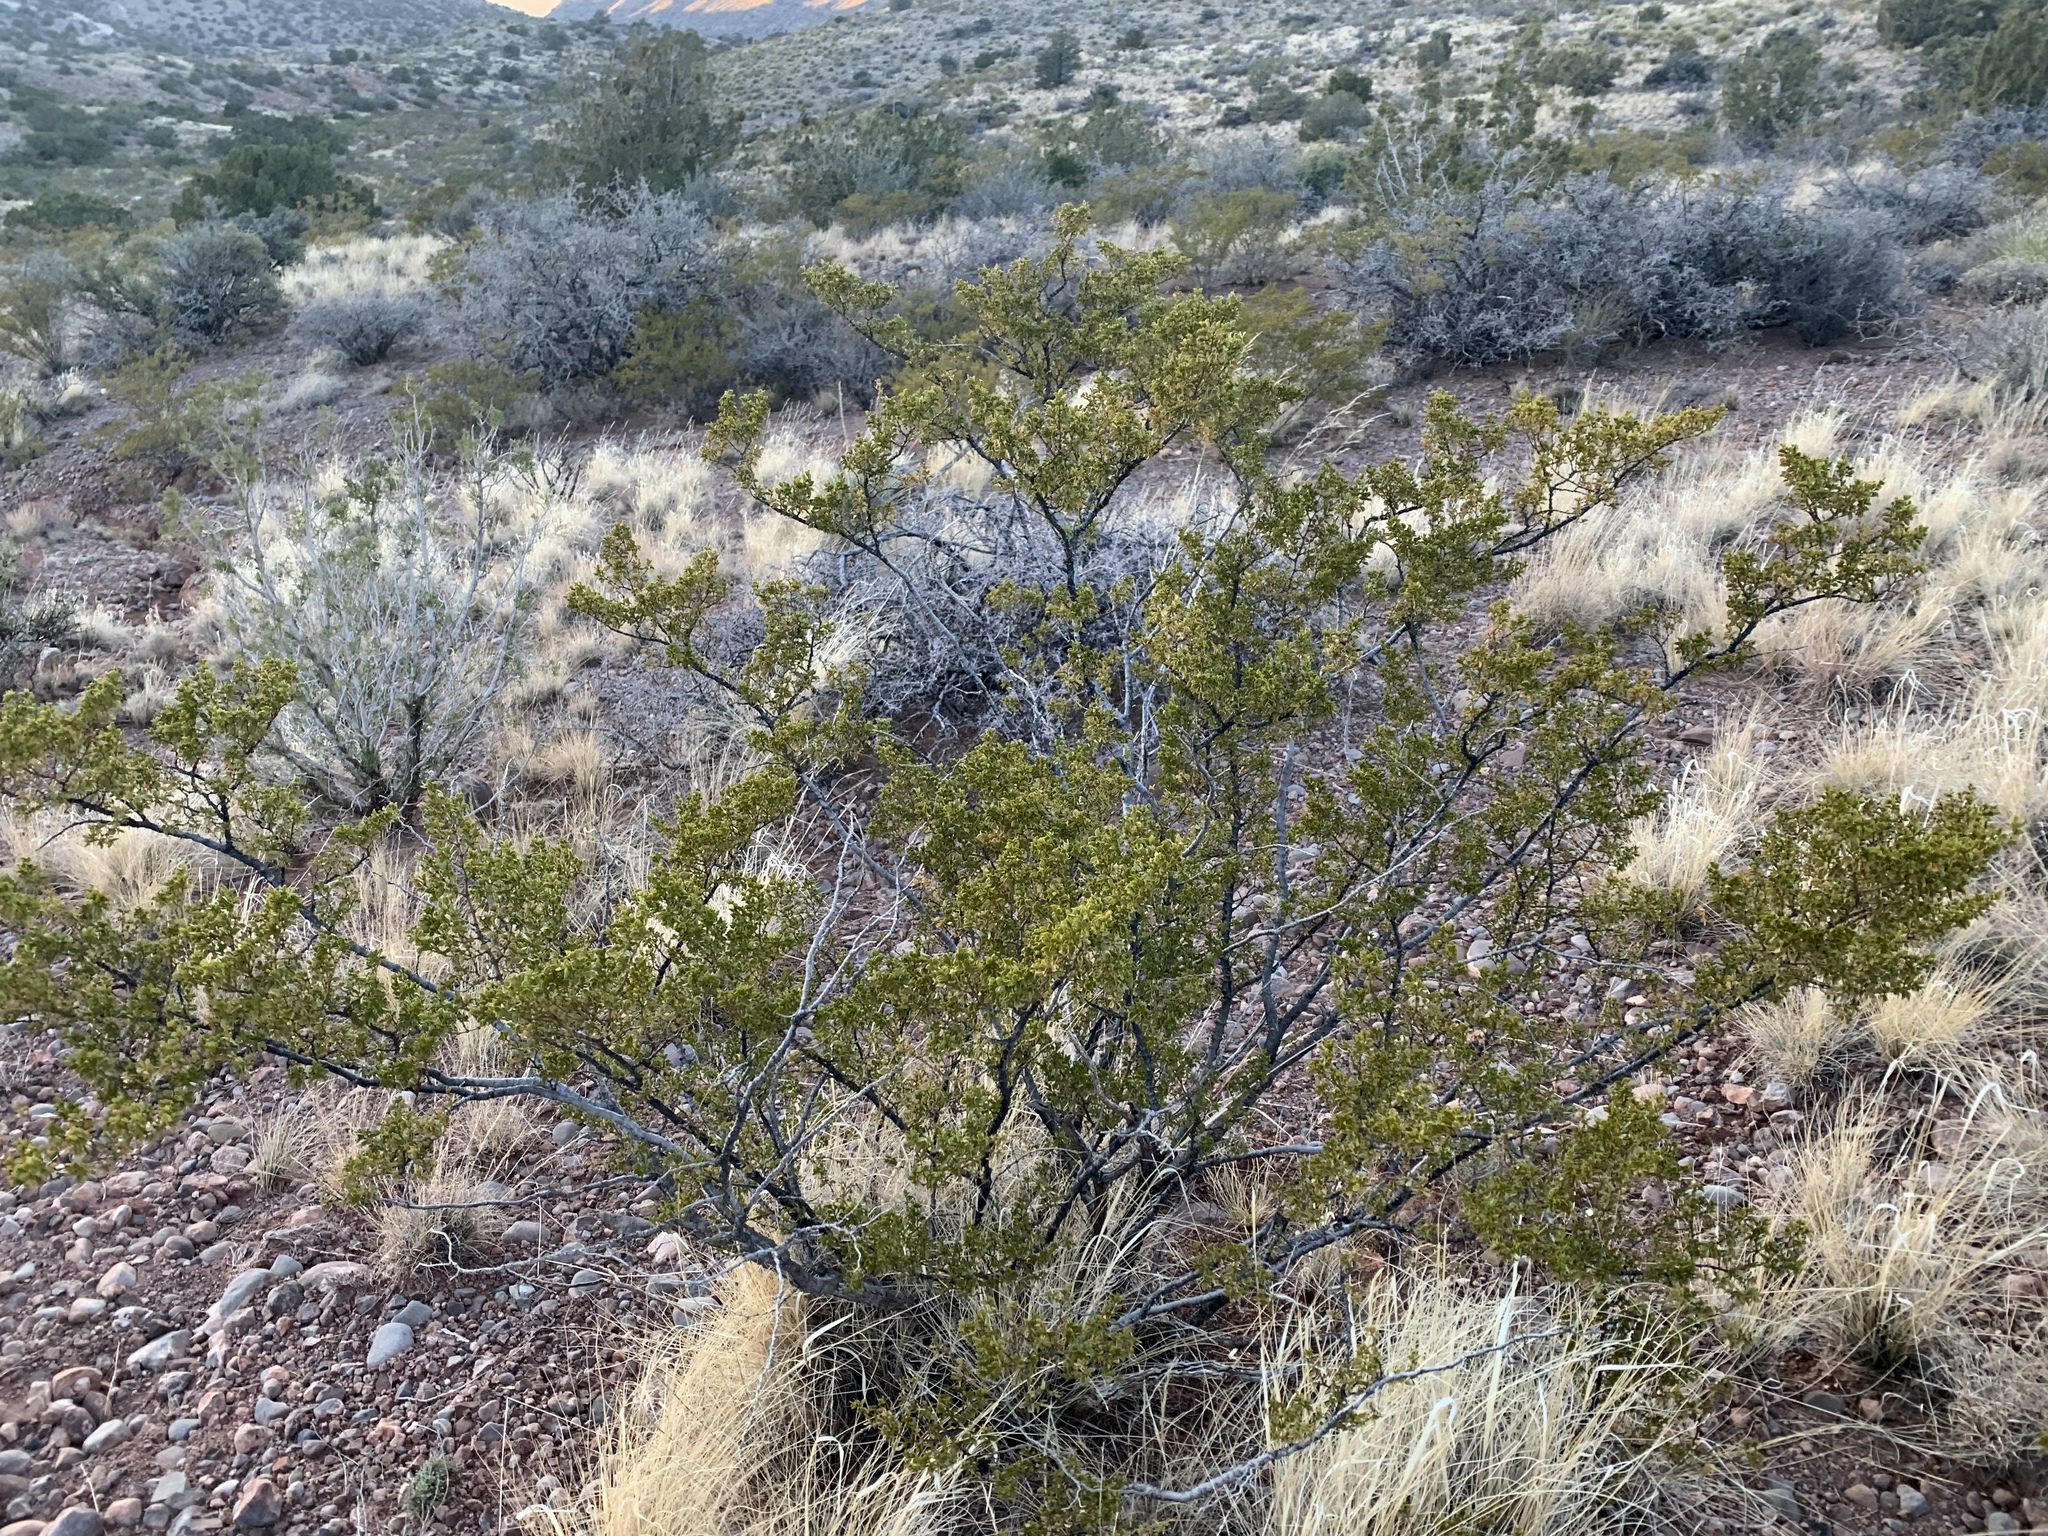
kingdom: Plantae
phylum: Tracheophyta
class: Magnoliopsida
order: Zygophyllales
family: Zygophyllaceae
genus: Larrea
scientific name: Larrea tridentata
